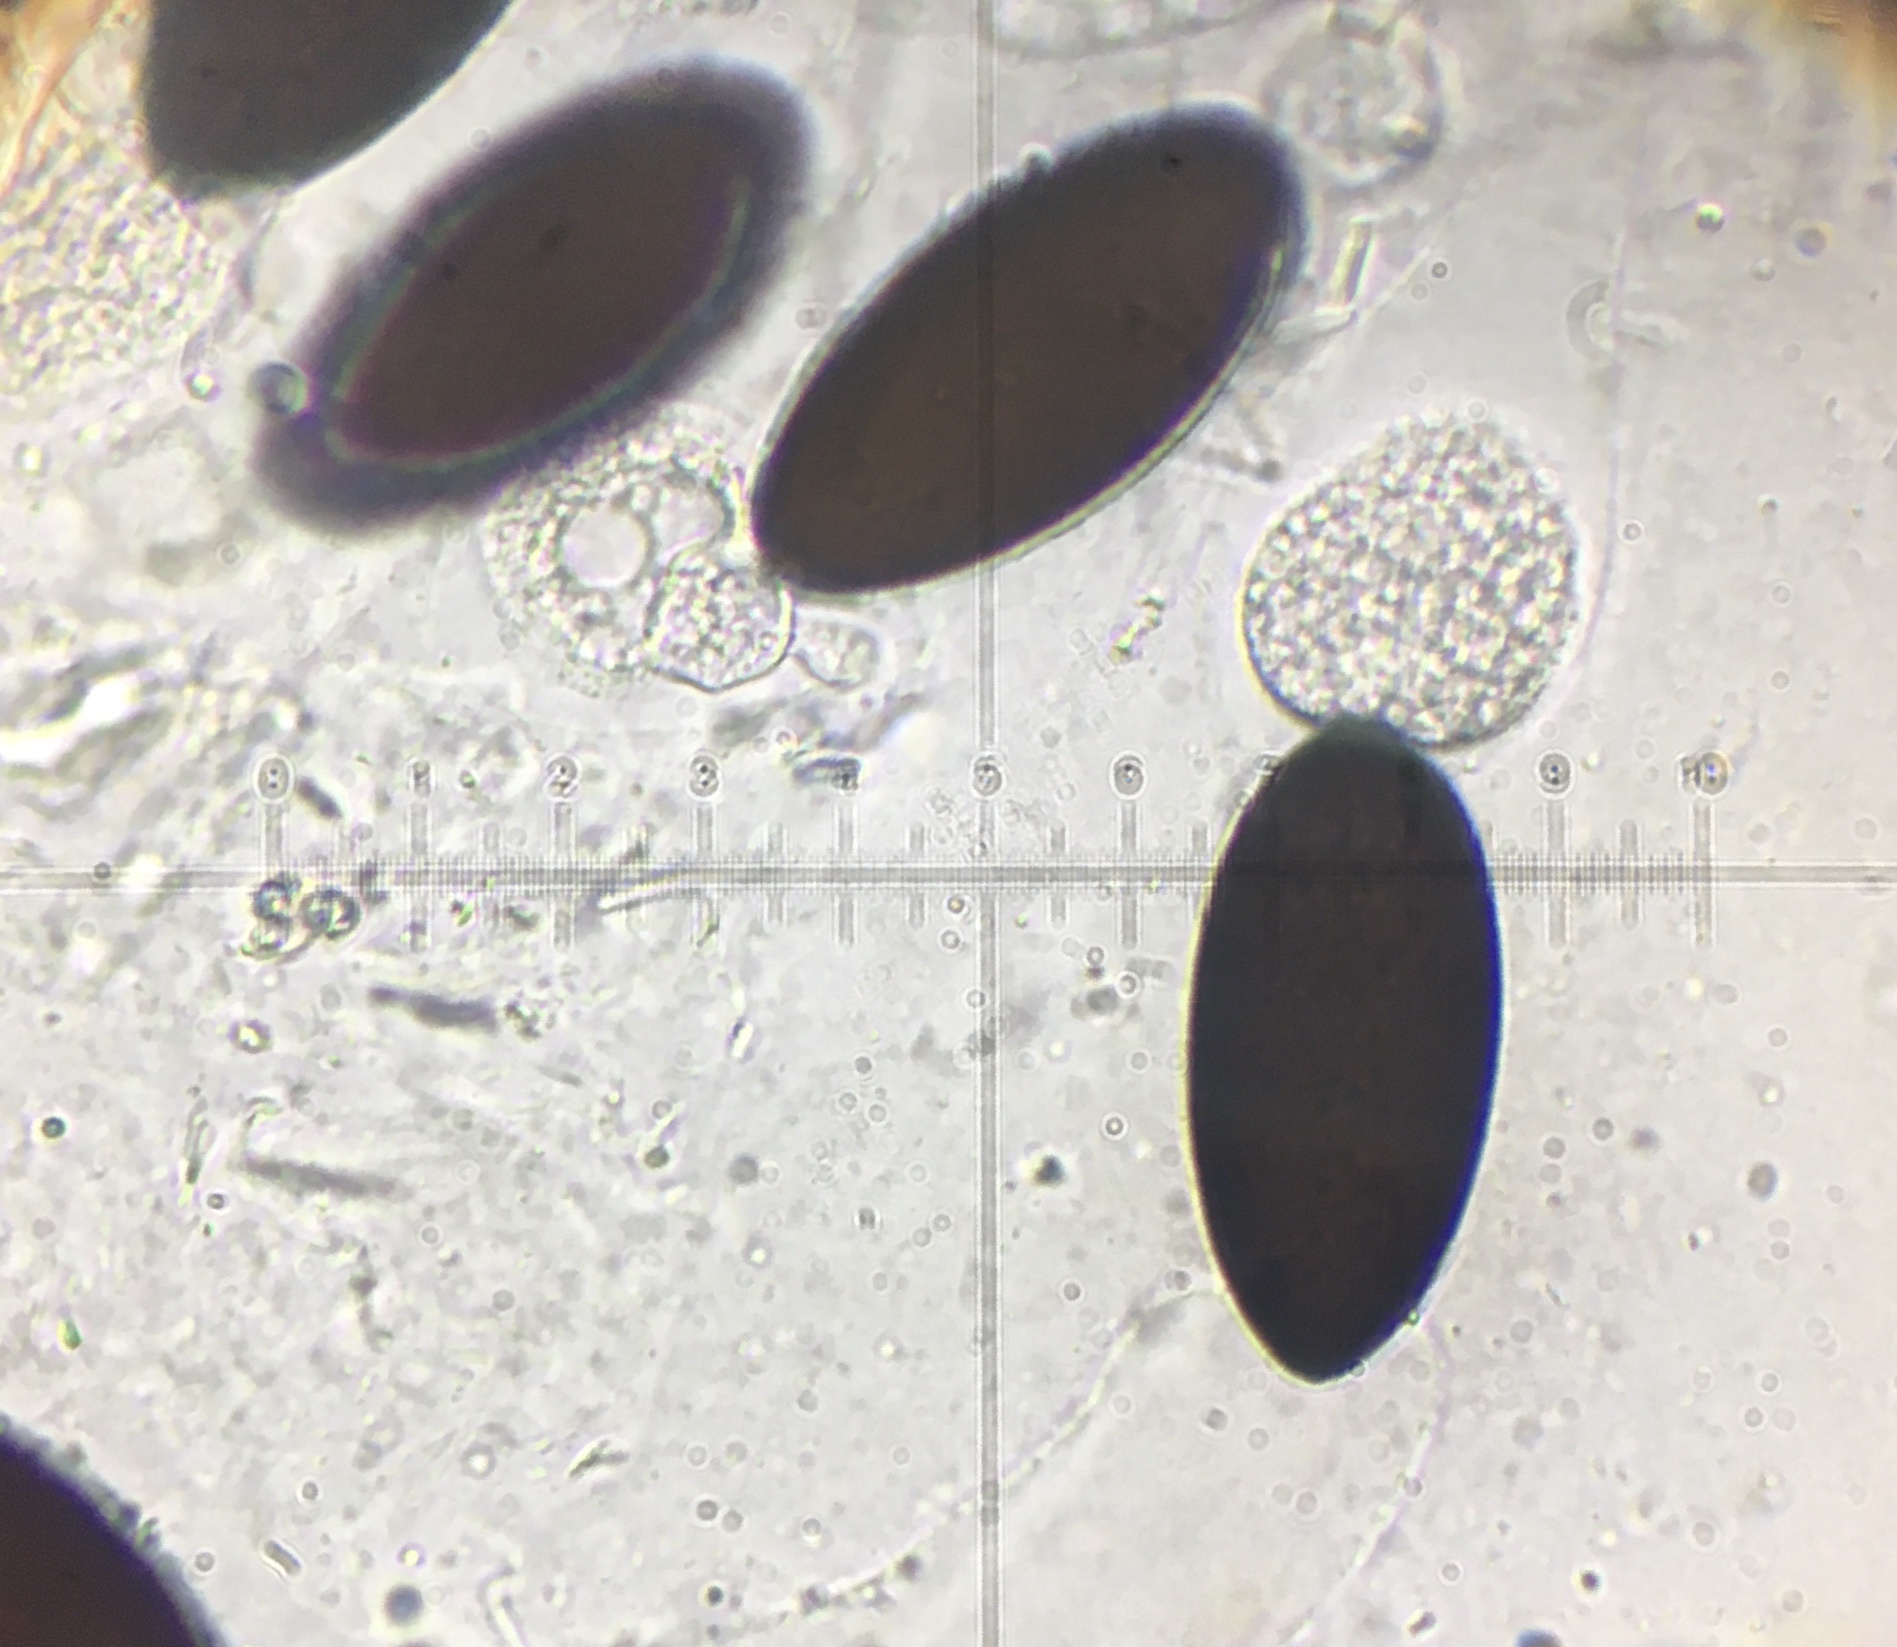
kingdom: Fungi
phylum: Ascomycota
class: Sordariomycetes
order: Sordariales
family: Podosporaceae
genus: Podospora
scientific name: Podospora austrohemisphaerica
